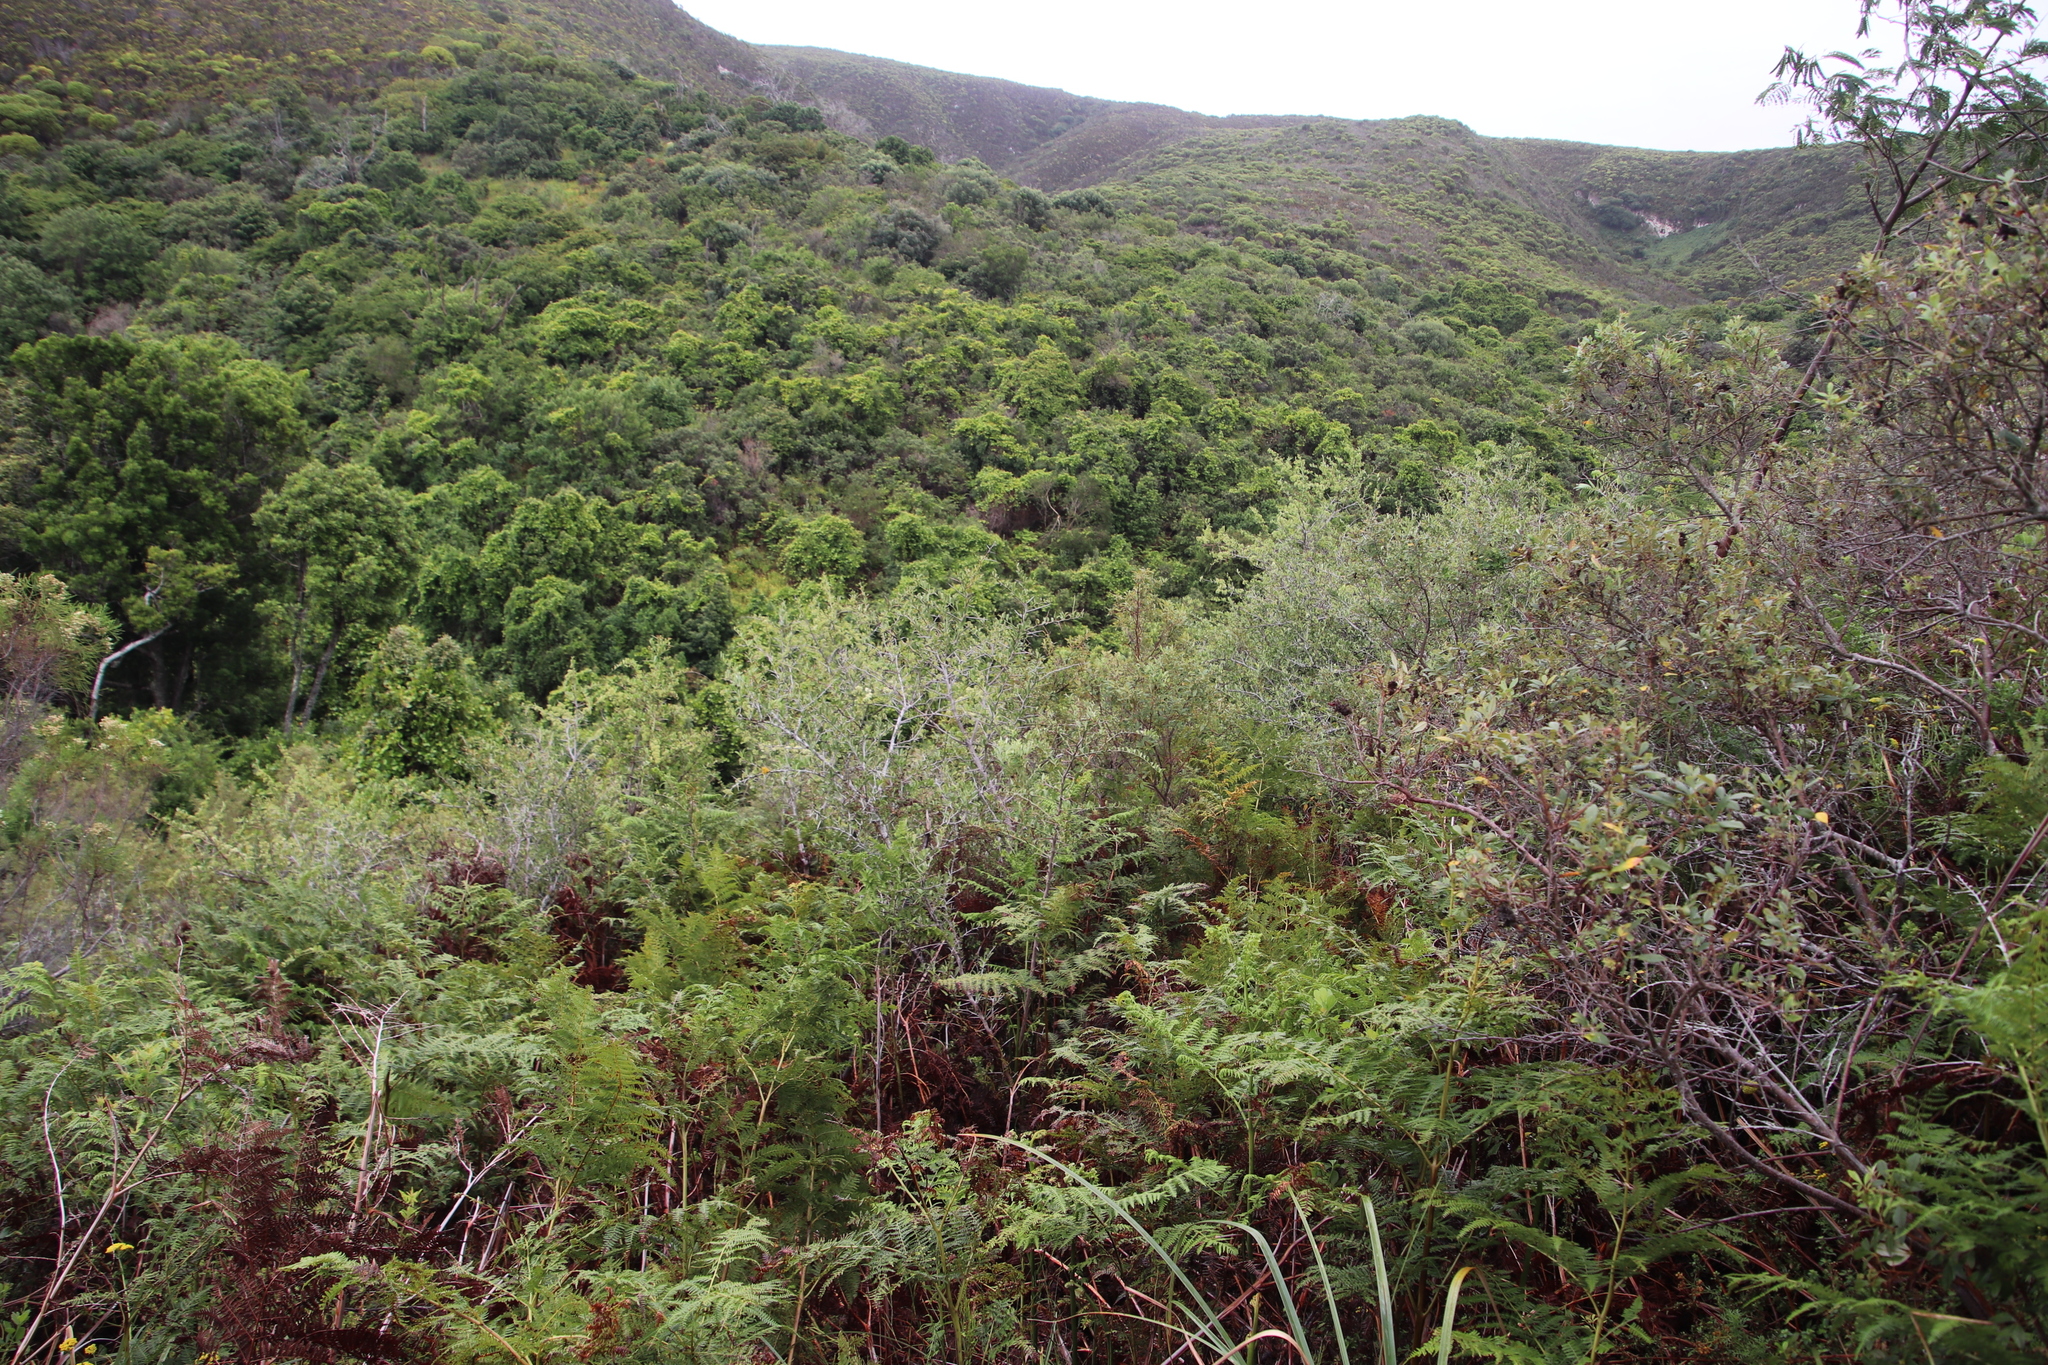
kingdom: Plantae
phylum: Tracheophyta
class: Magnoliopsida
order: Celastrales
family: Celastraceae
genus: Gymnosporia
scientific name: Gymnosporia buxifolia
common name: Common spike-thorn
